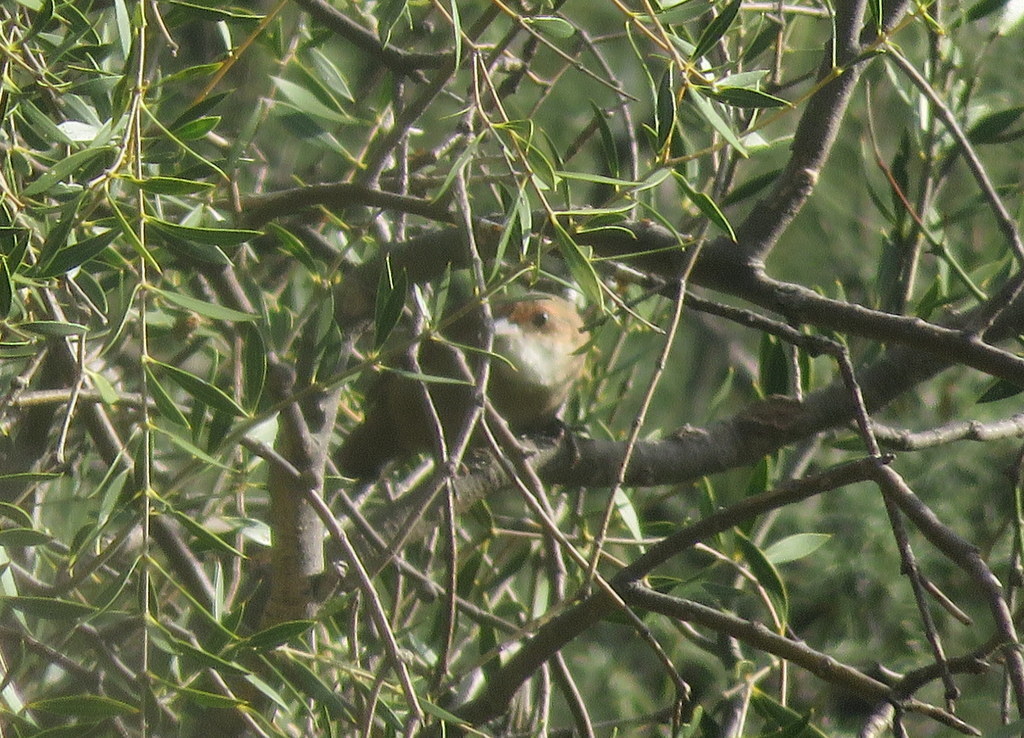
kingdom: Animalia
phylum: Chordata
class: Aves
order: Passeriformes
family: Furnariidae
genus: Upucerthia
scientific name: Upucerthia certhioides
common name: Chaco earthcreeper
